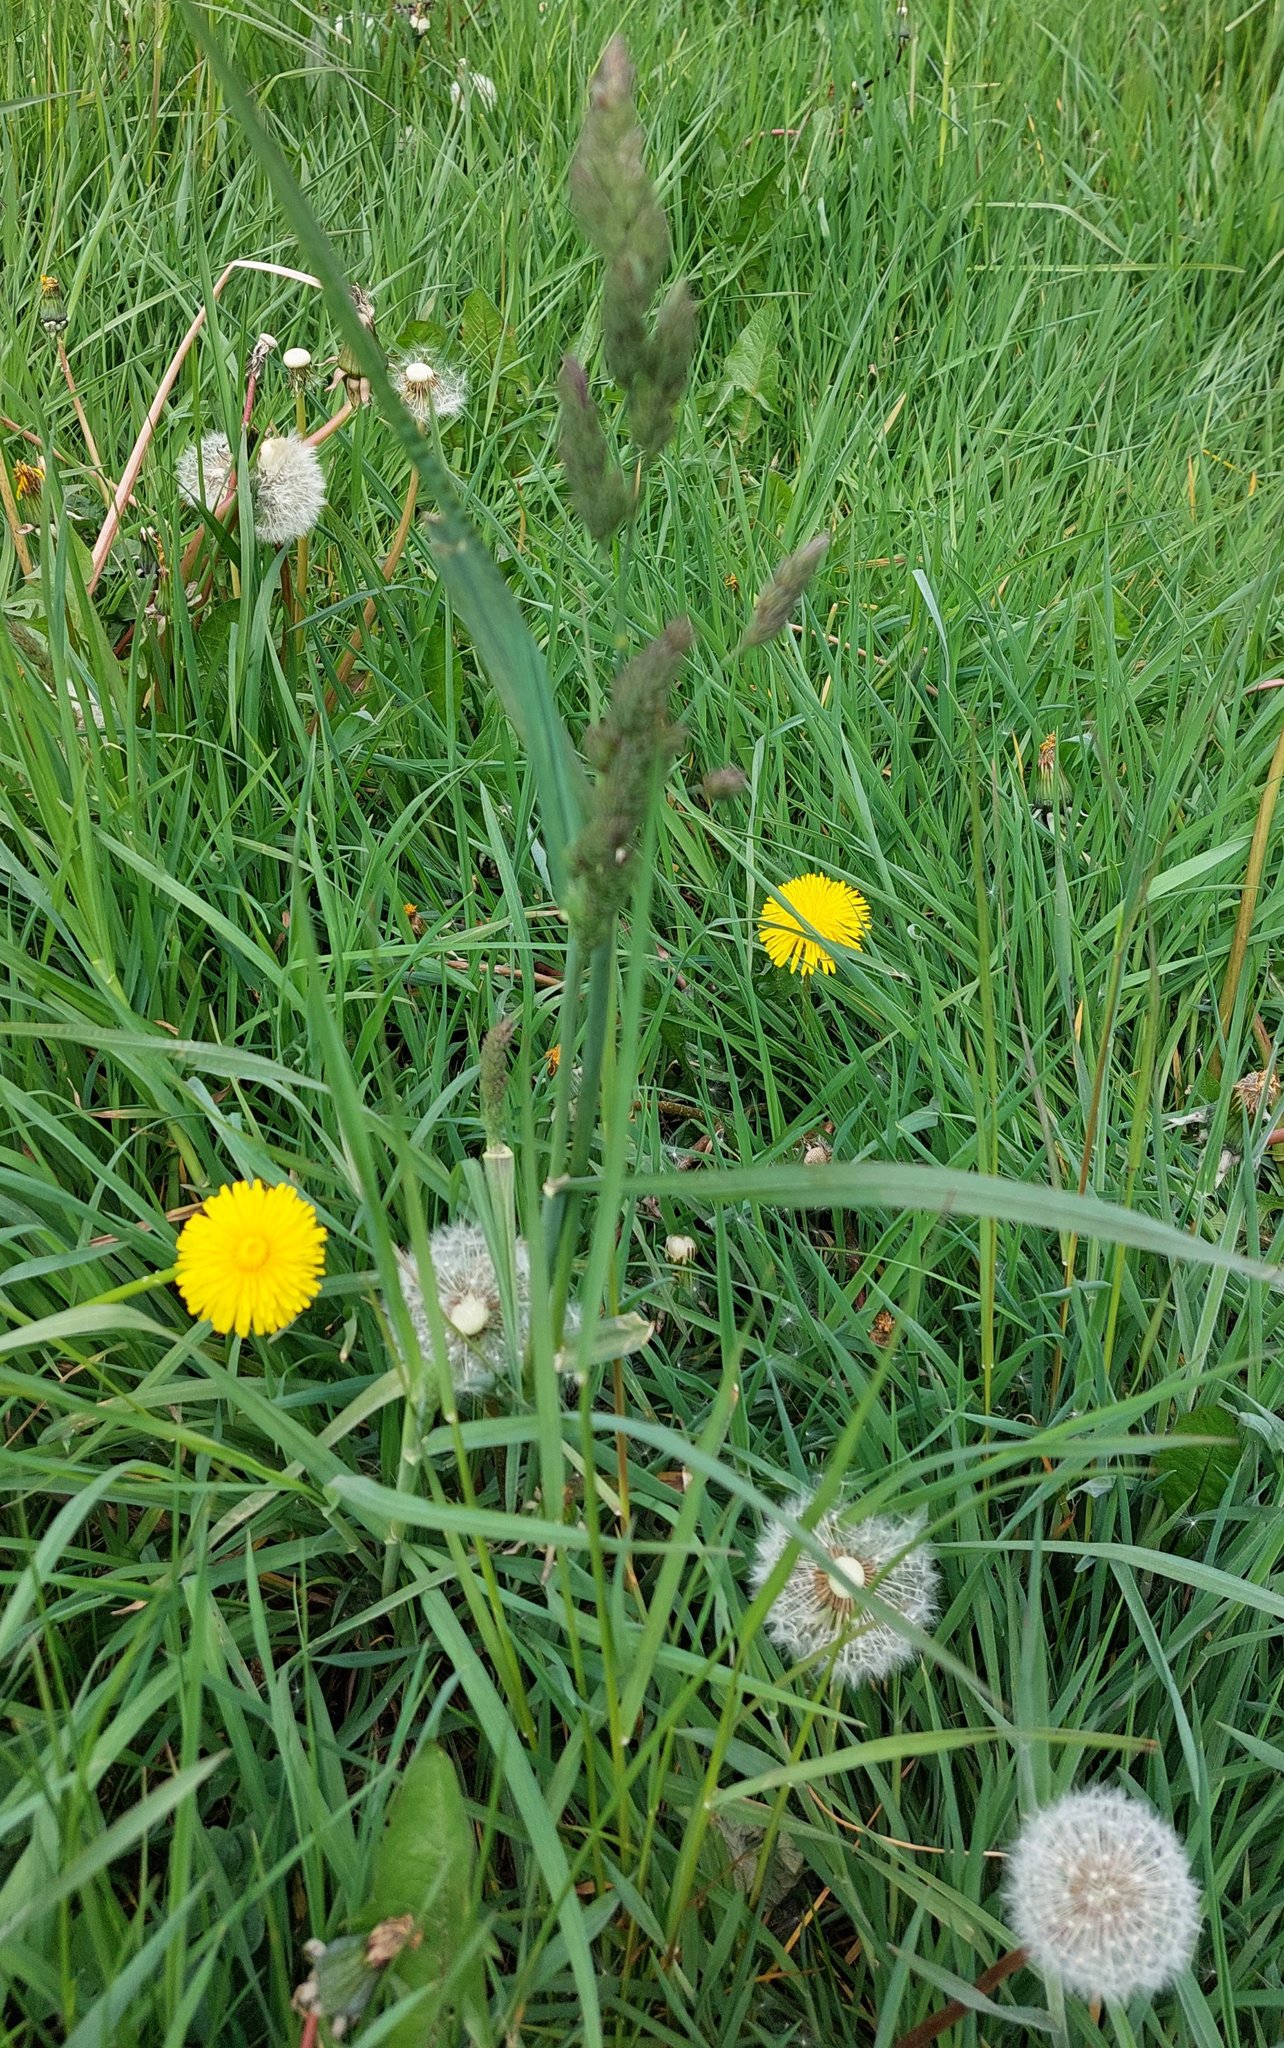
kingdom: Plantae
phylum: Tracheophyta
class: Liliopsida
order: Poales
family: Poaceae
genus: Dactylis
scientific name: Dactylis glomerata
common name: Orchardgrass
